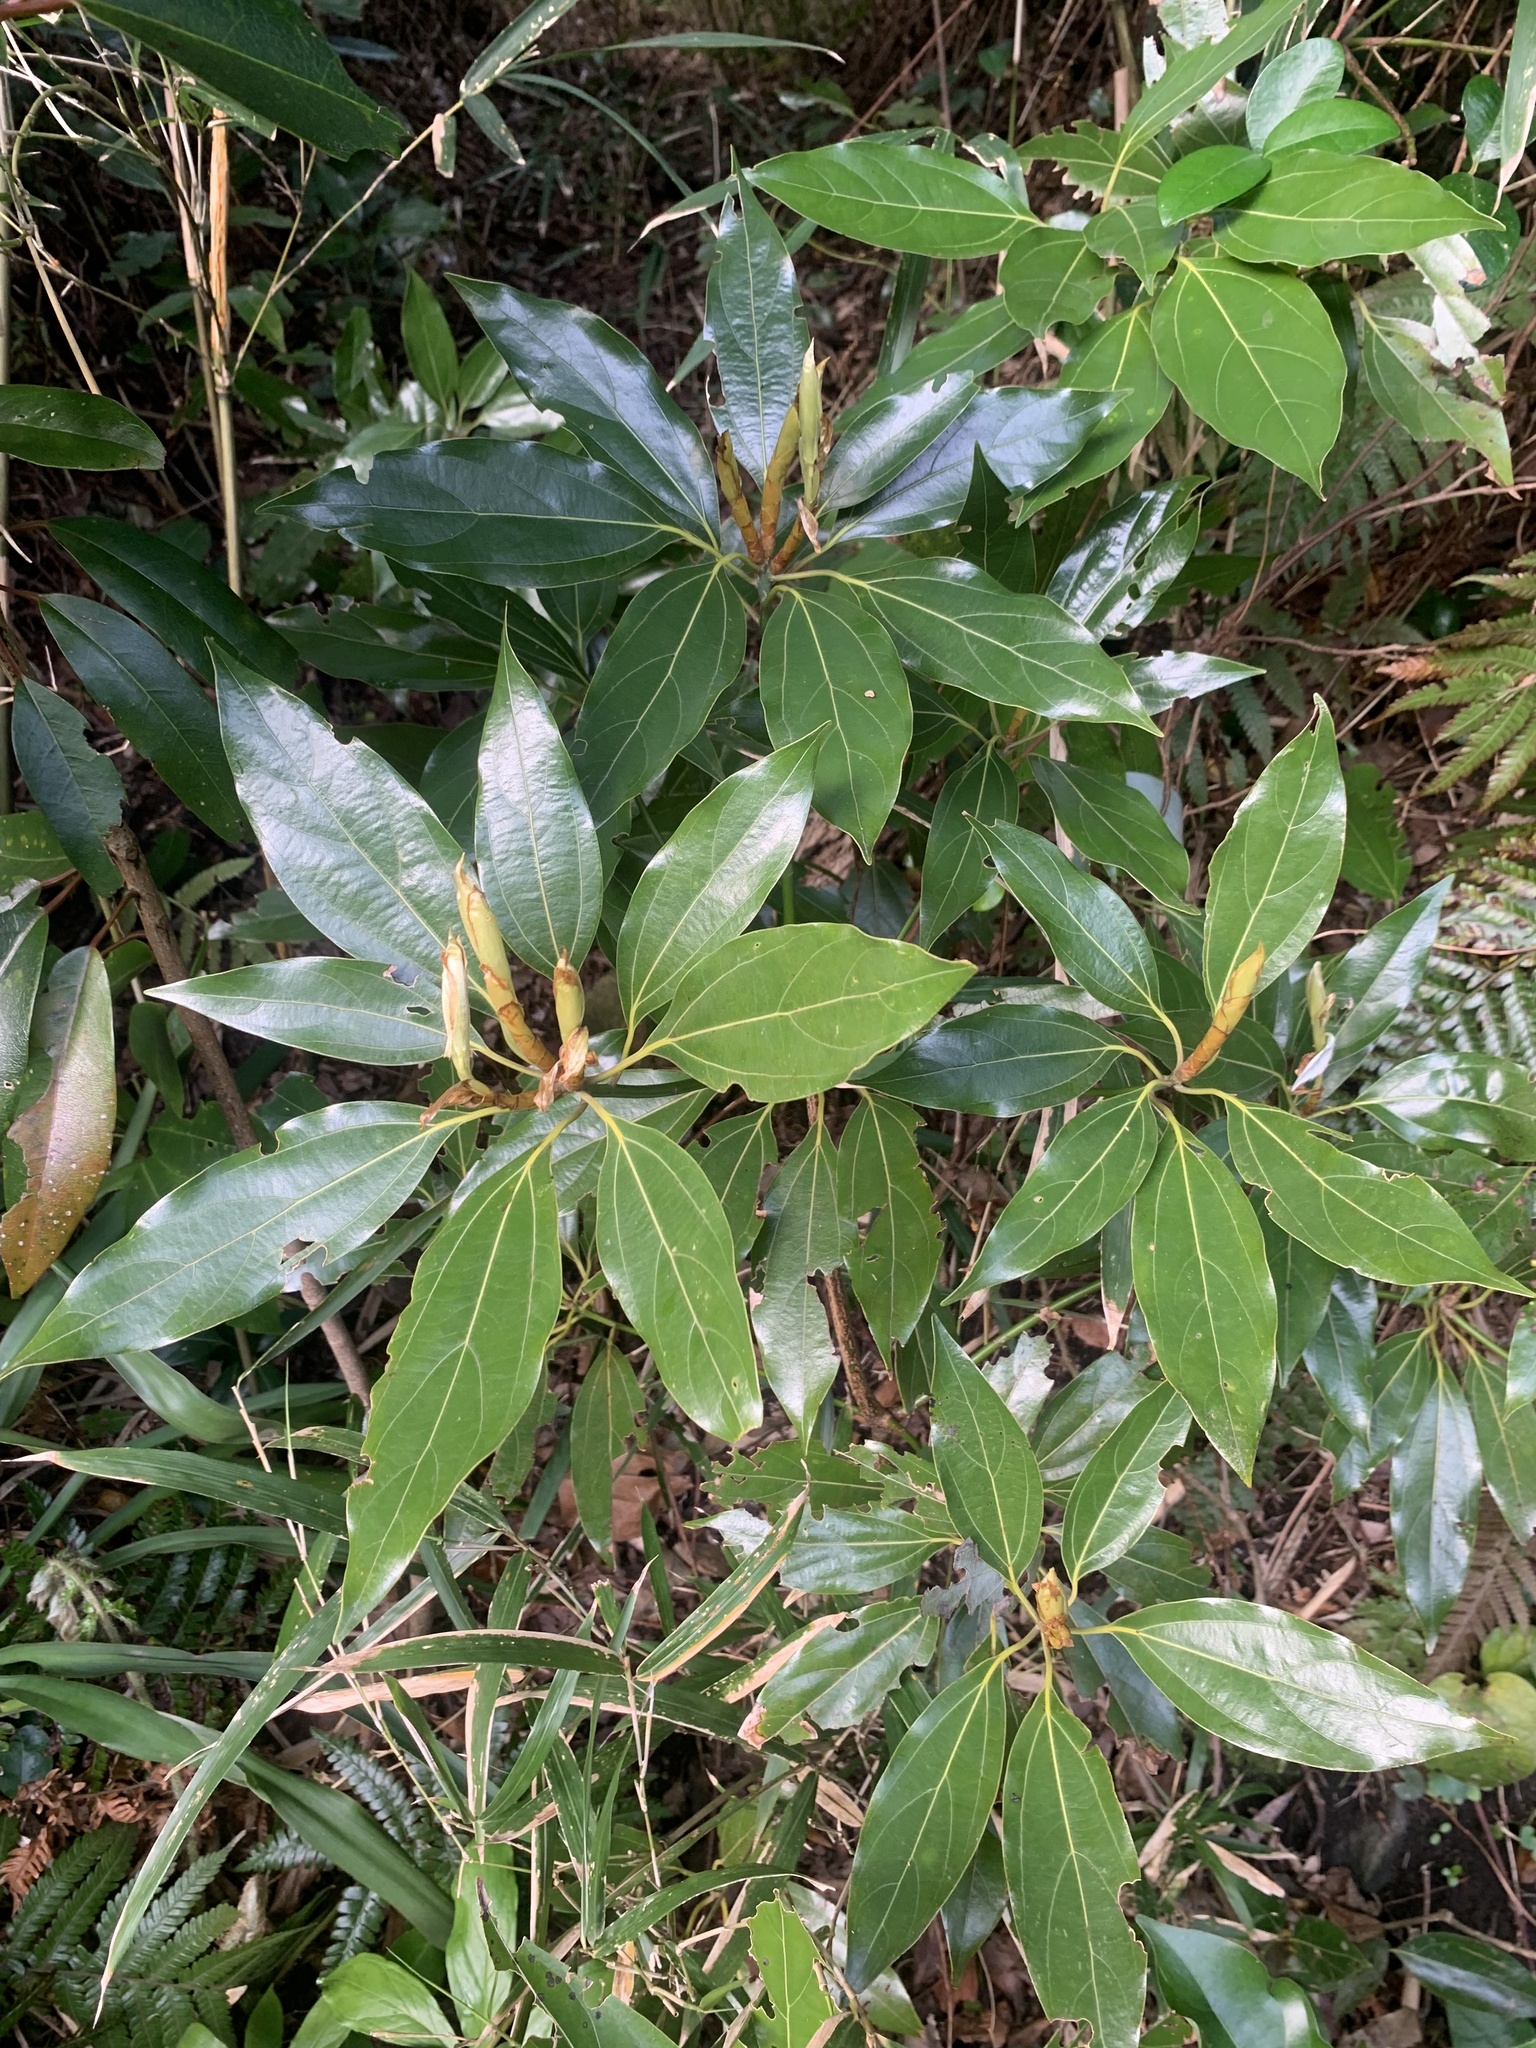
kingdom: Plantae
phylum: Tracheophyta
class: Magnoliopsida
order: Laurales
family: Lauraceae
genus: Neolitsea
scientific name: Neolitsea sericea
